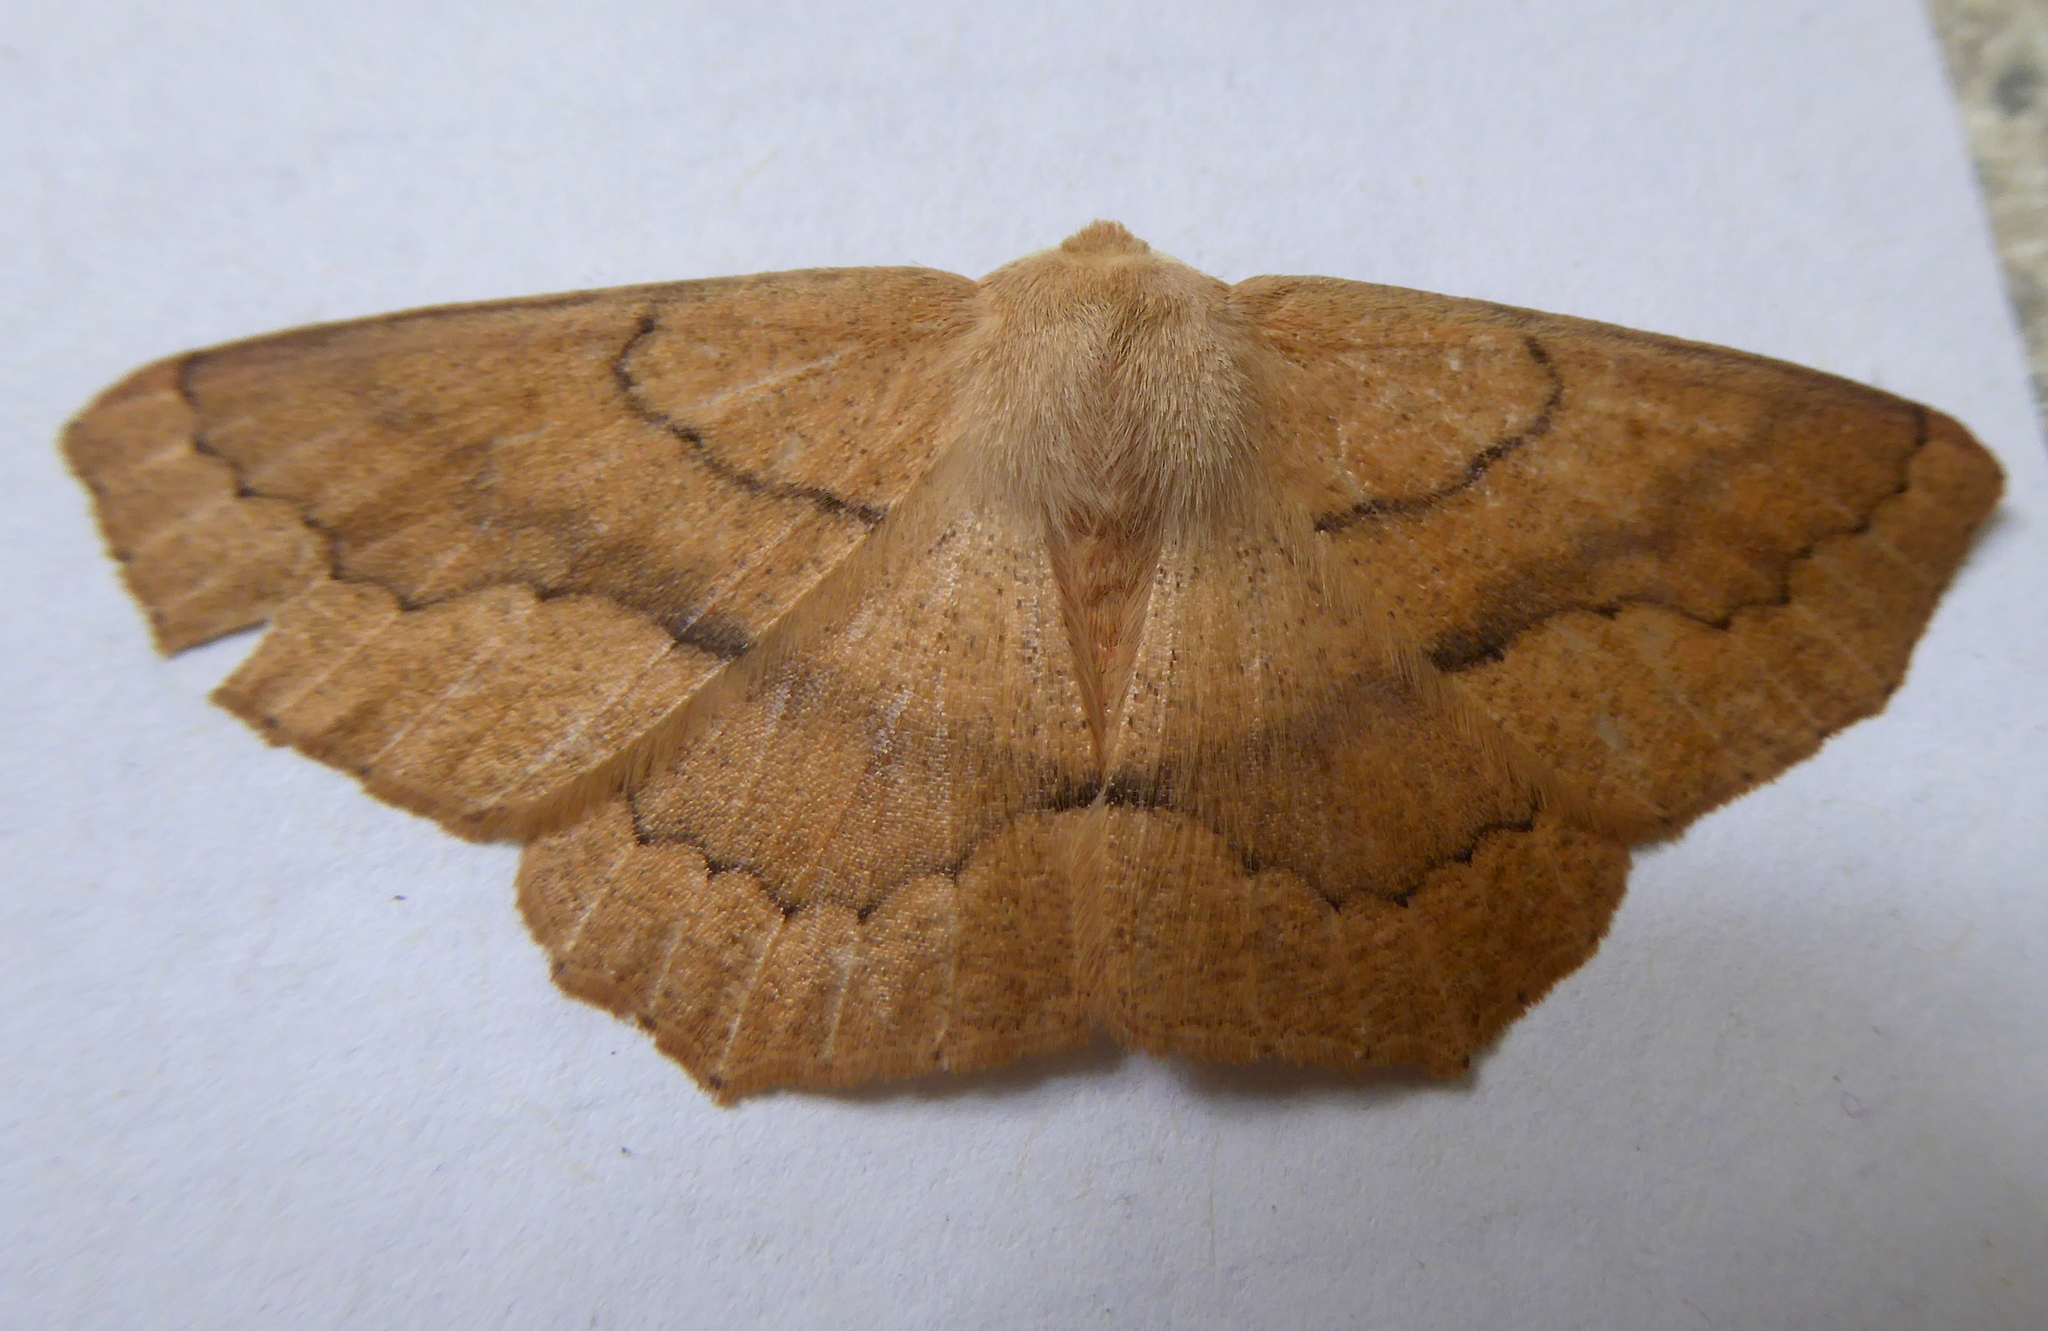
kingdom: Animalia
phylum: Arthropoda
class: Insecta
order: Lepidoptera
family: Geometridae
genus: Sabulodes
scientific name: Sabulodes aegrotata
